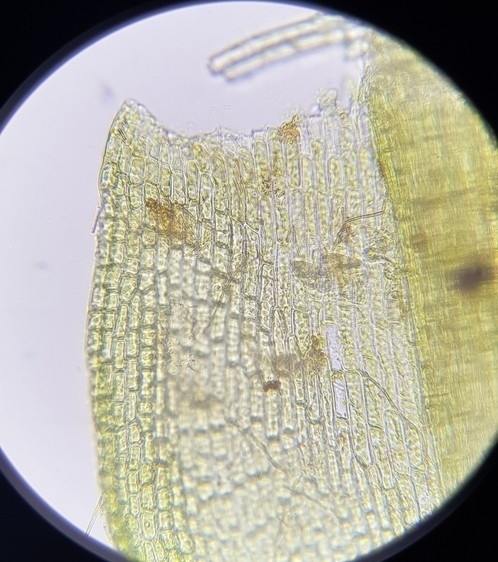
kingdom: Plantae
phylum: Bryophyta
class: Bryopsida
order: Dicranales
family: Aongstroemiaceae
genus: Dichodontium
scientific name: Dichodontium pellucidum
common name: Transparent fork moss
